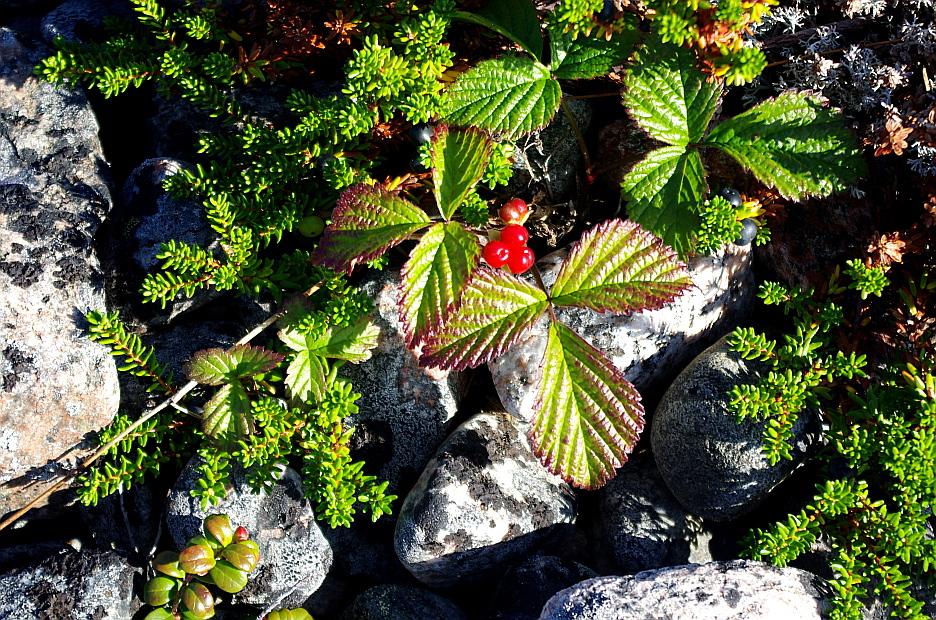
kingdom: Plantae
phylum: Tracheophyta
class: Magnoliopsida
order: Rosales
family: Rosaceae
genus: Rubus
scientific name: Rubus saxatilis
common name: Stone bramble
